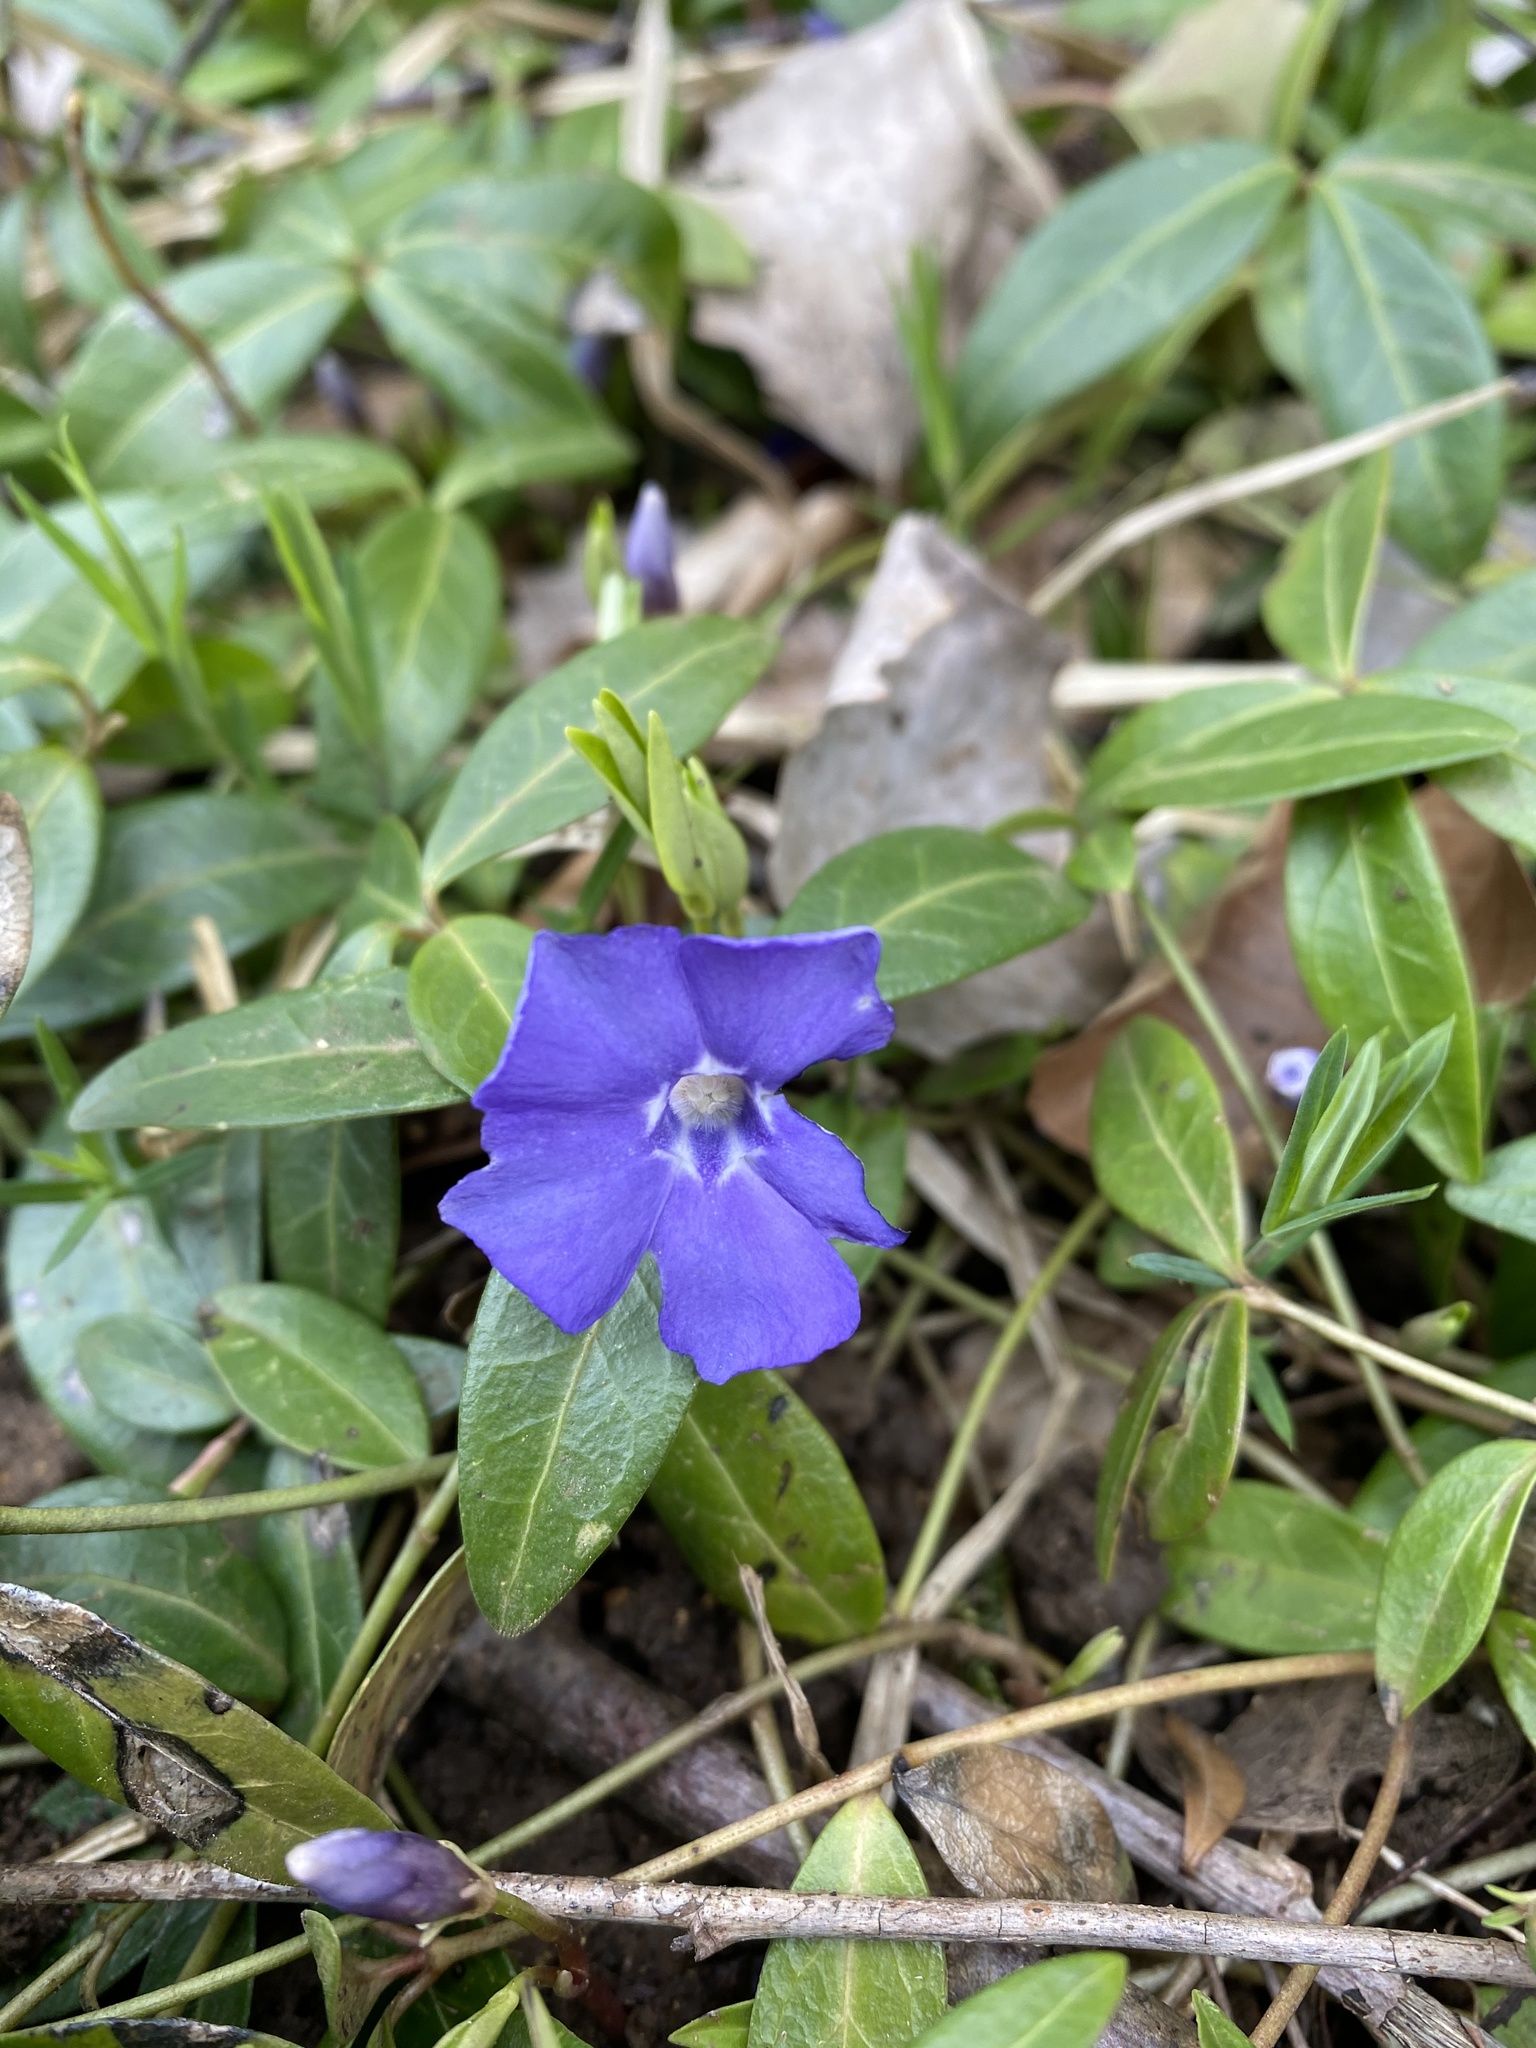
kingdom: Plantae
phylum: Tracheophyta
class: Magnoliopsida
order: Gentianales
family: Apocynaceae
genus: Vinca
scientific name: Vinca minor
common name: Lesser periwinkle
